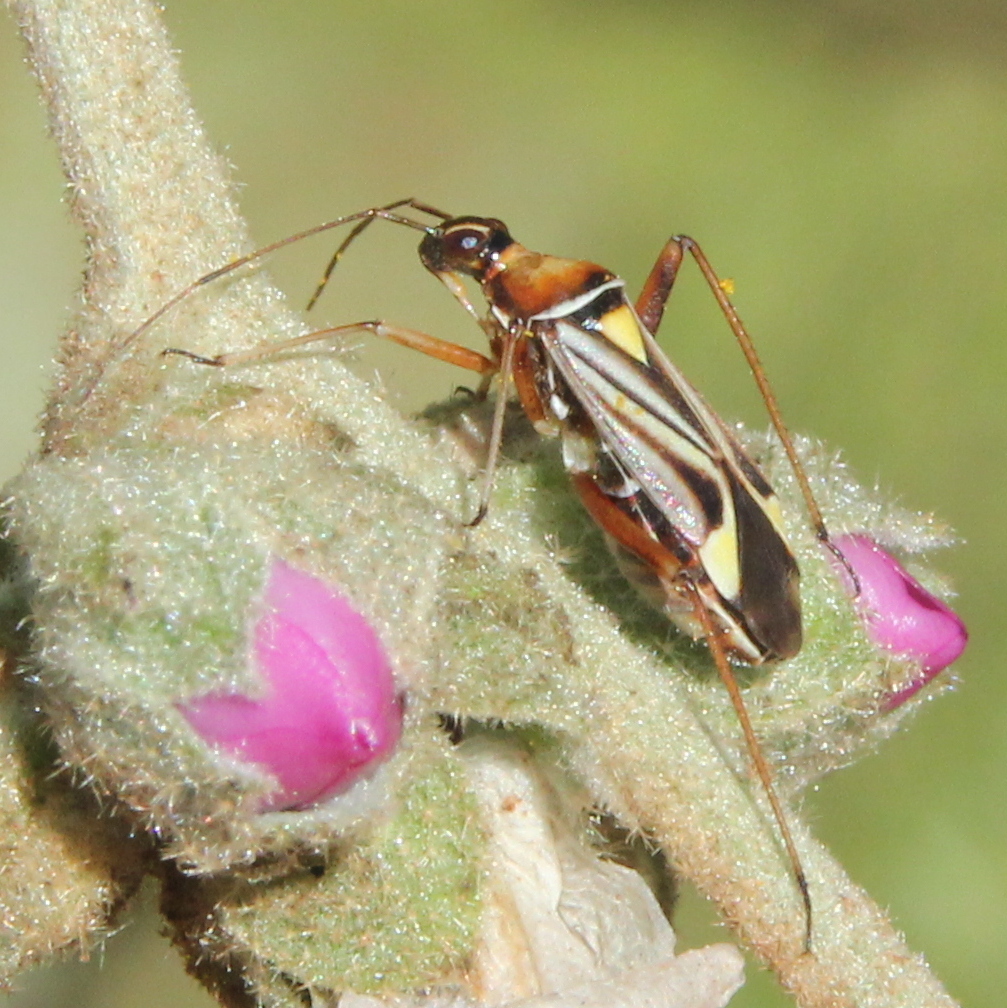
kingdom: Animalia
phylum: Arthropoda
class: Insecta
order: Hemiptera
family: Miridae
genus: Closterocoris
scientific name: Closterocoris amoenus
